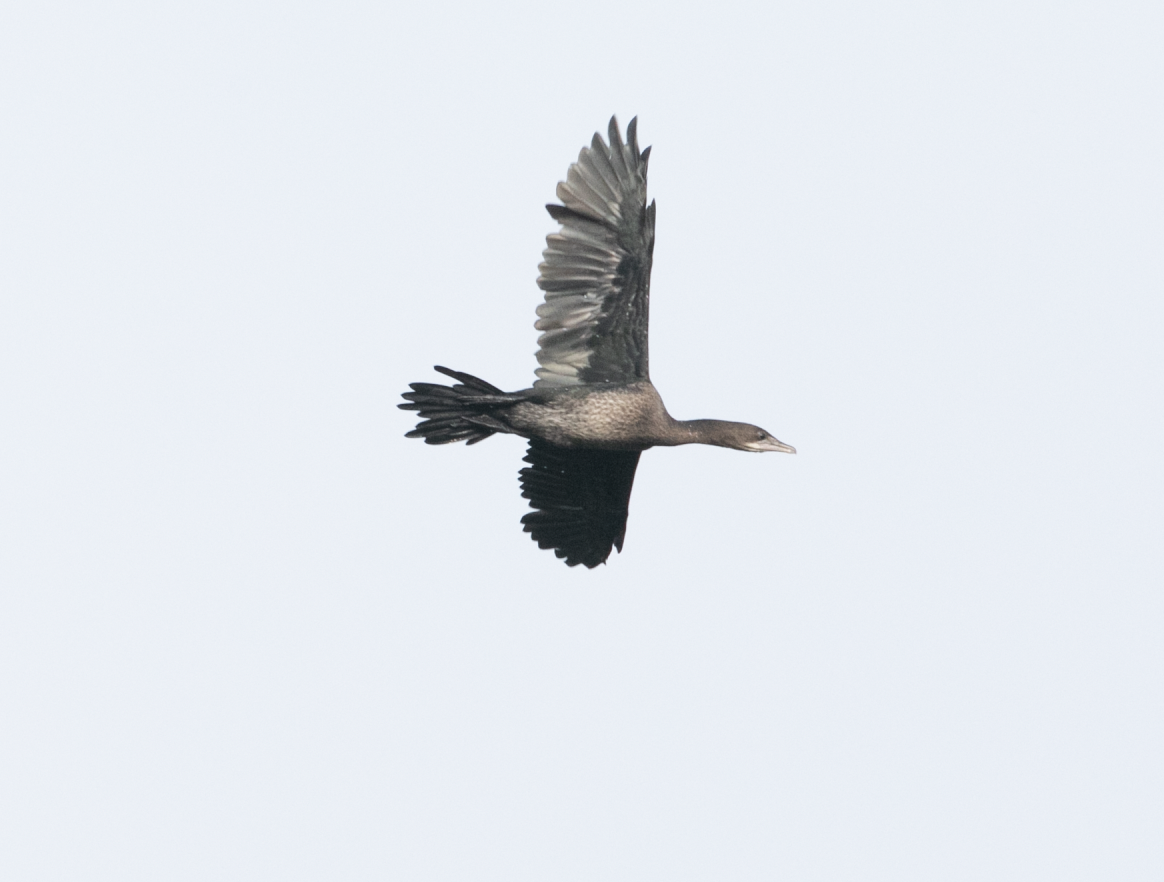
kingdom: Animalia
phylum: Chordata
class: Aves
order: Suliformes
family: Phalacrocoracidae
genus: Microcarbo
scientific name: Microcarbo pygmaeus
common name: Pygmy cormorant
